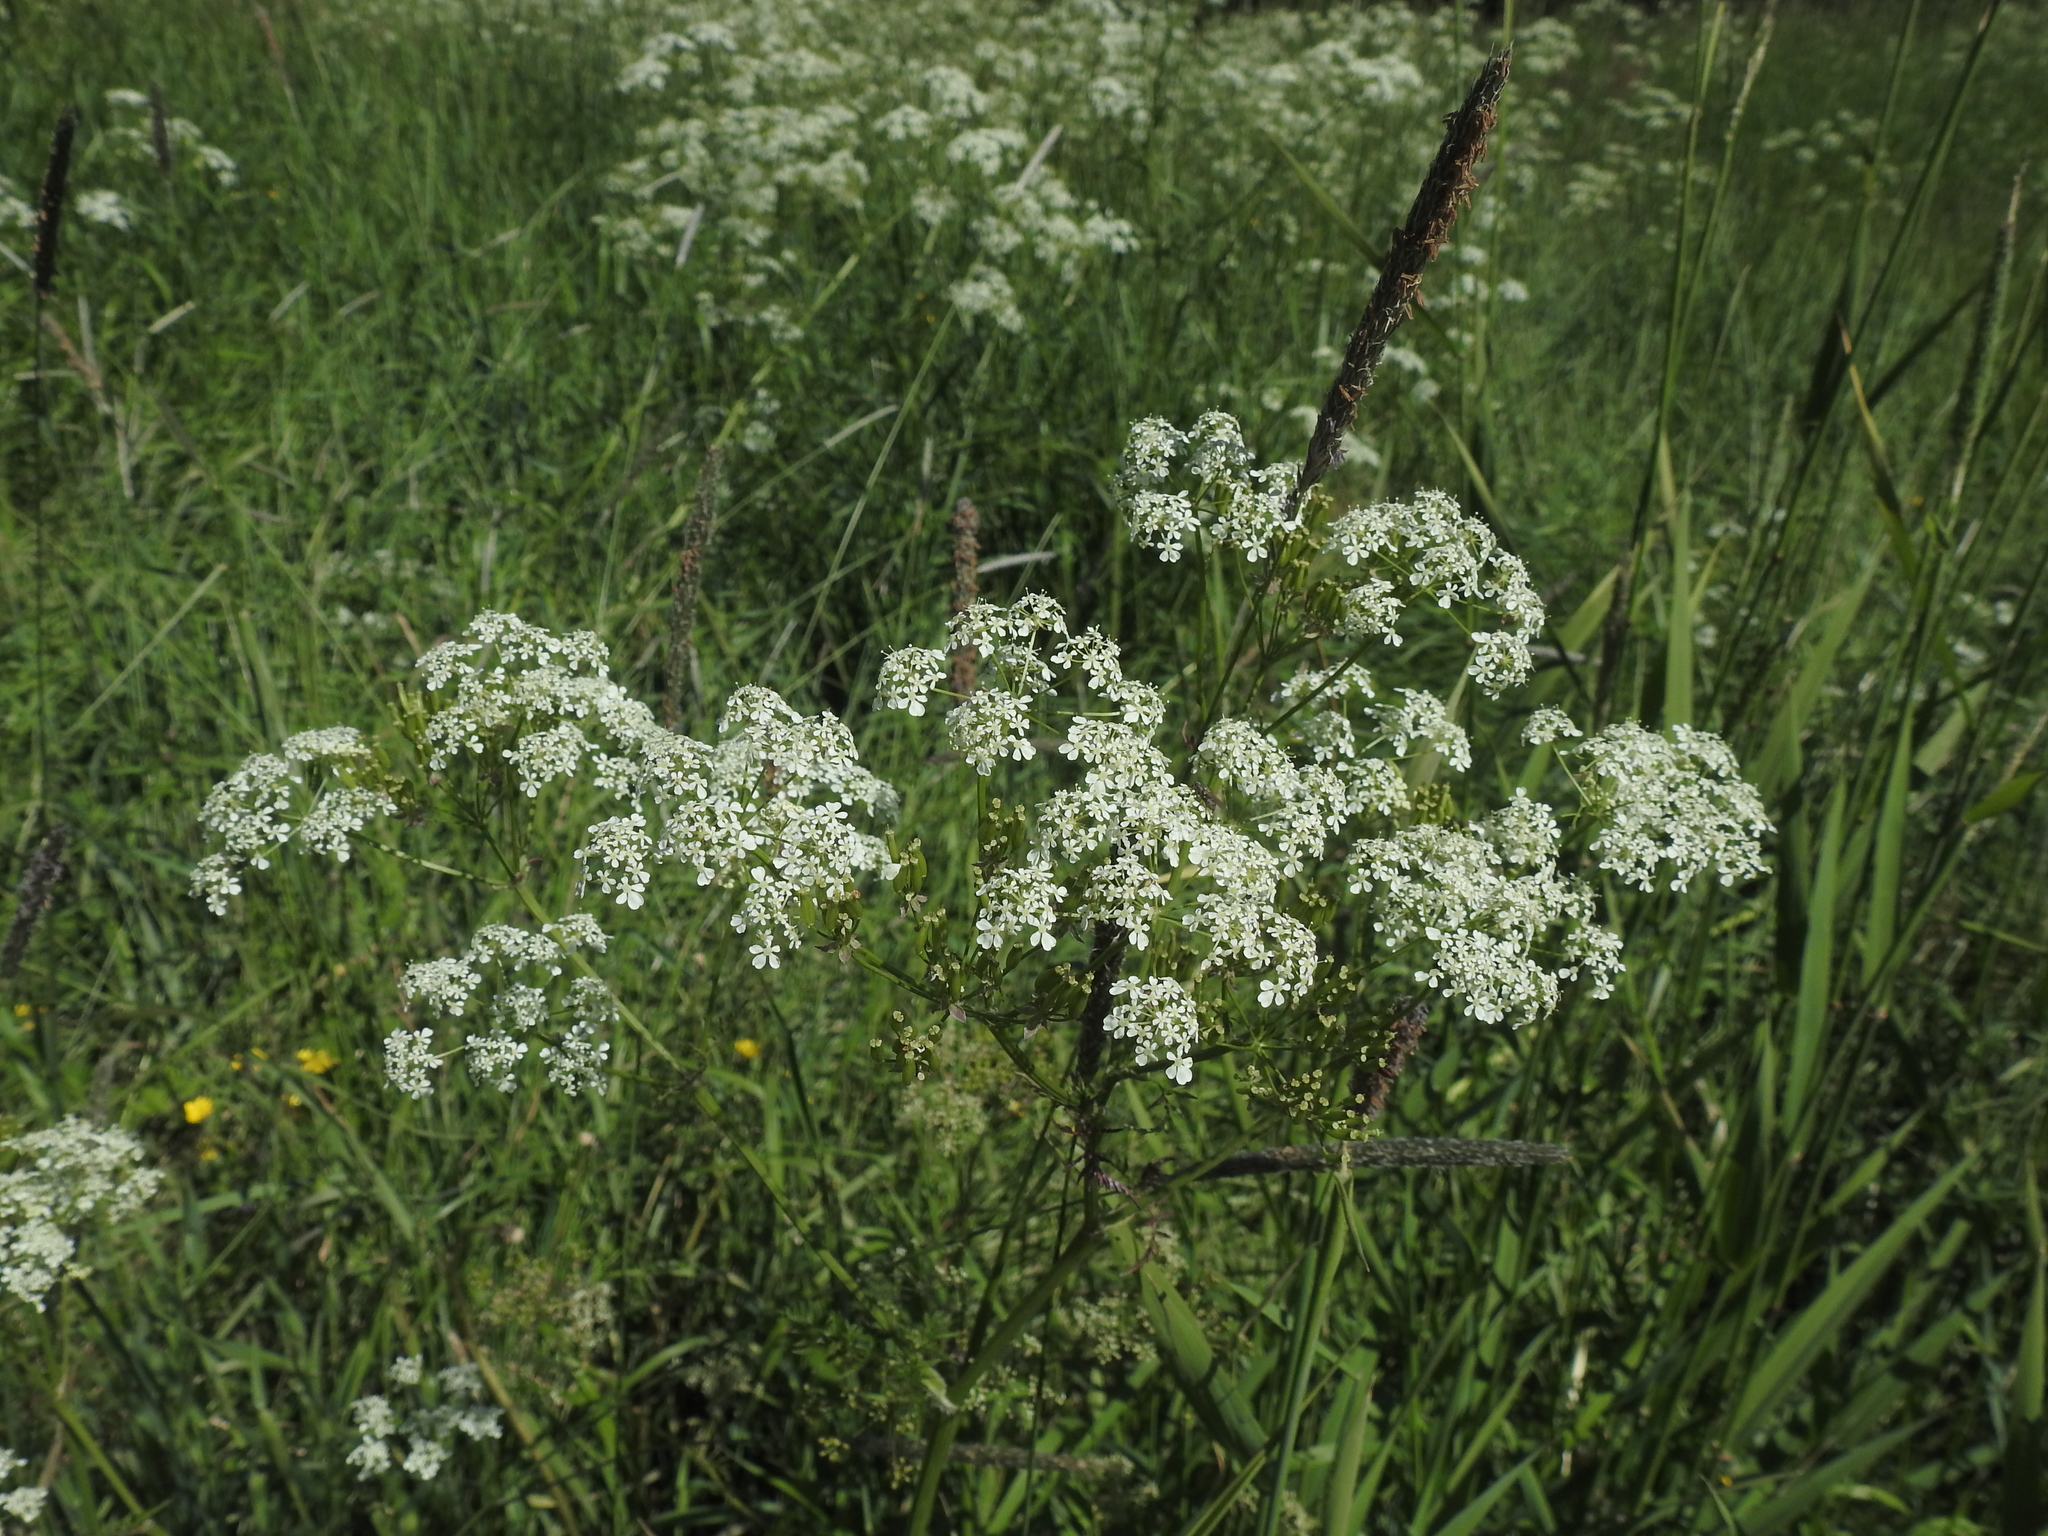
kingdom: Plantae
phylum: Tracheophyta
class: Magnoliopsida
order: Apiales
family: Apiaceae
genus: Anthriscus
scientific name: Anthriscus sylvestris
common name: Cow parsley
